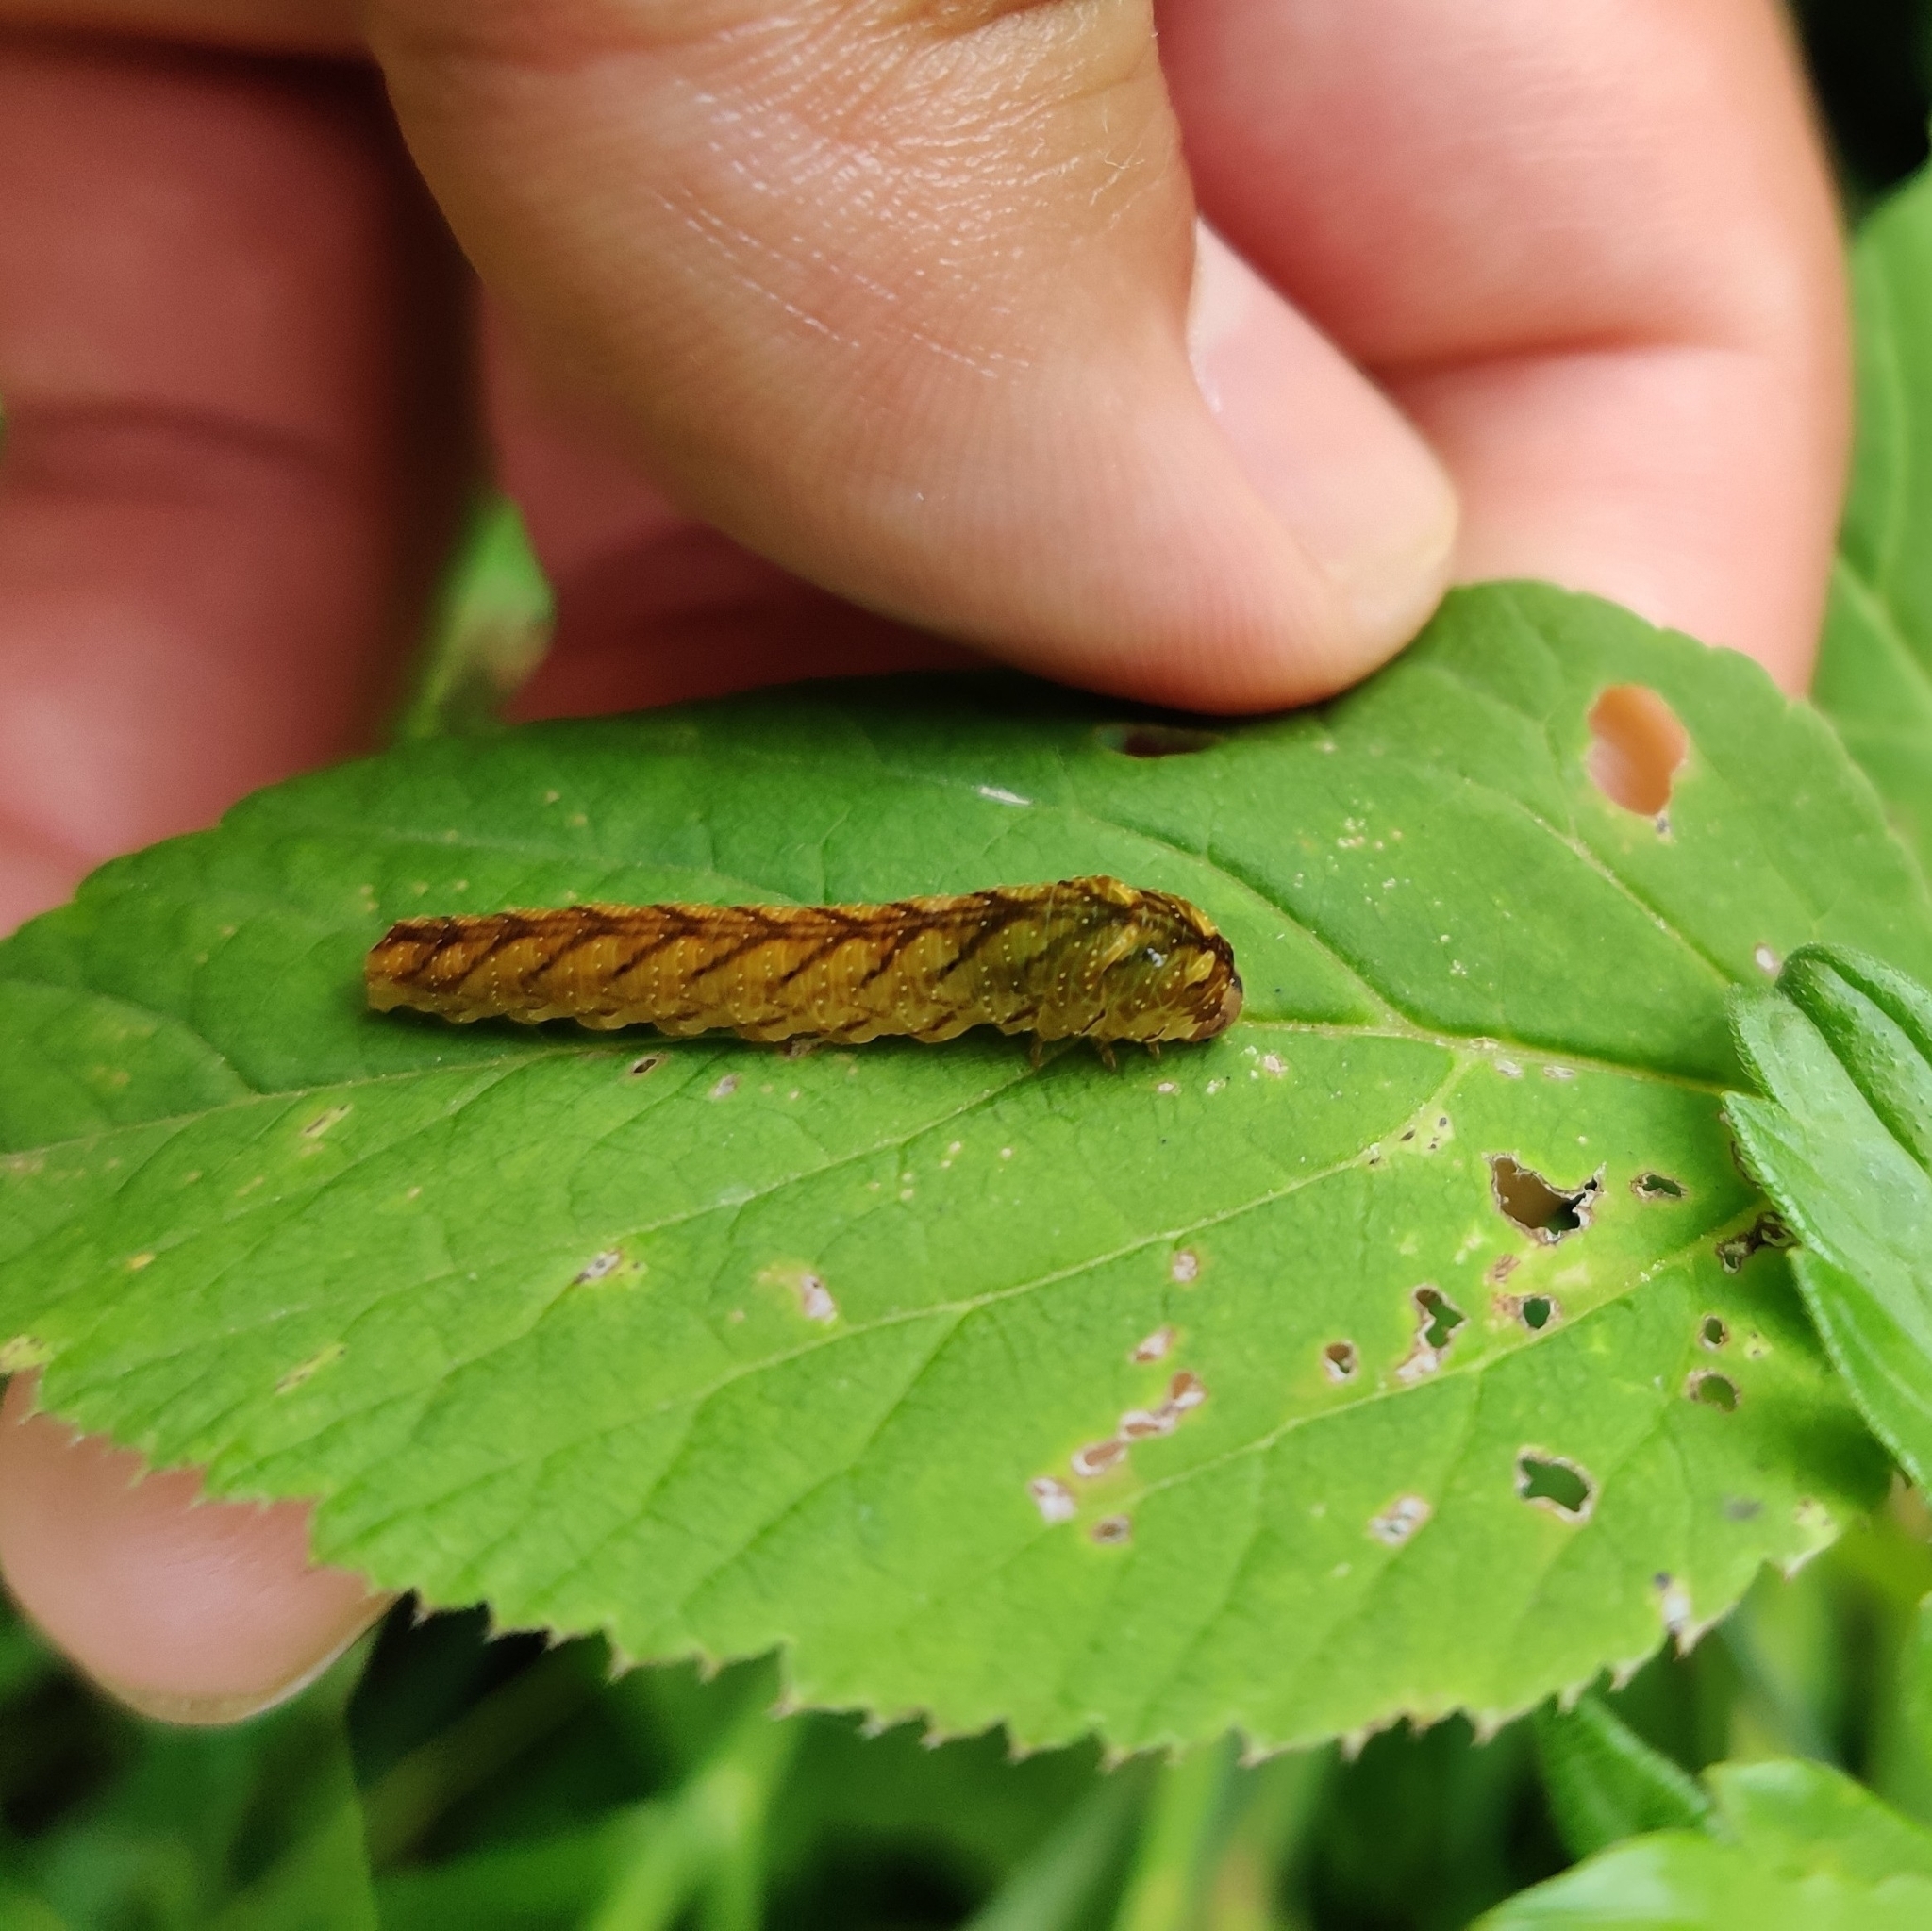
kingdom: Animalia
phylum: Arthropoda
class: Insecta
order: Hymenoptera
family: Tenthredinidae
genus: Tenthredo
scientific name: Tenthredo campestris
